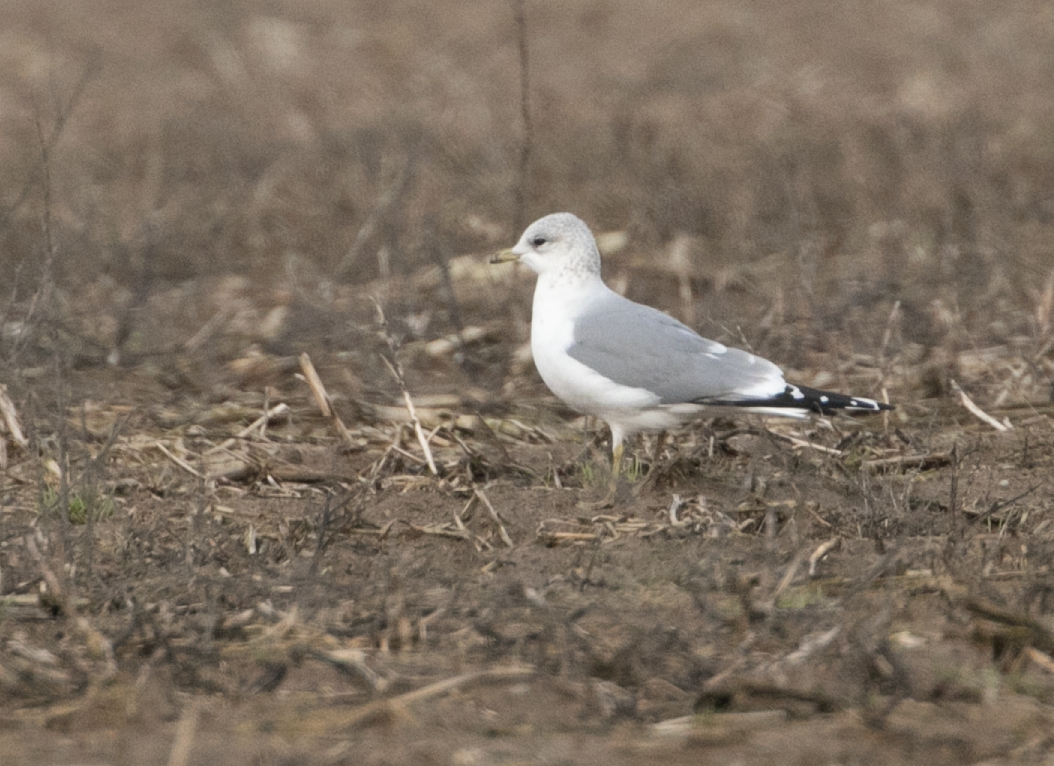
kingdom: Animalia
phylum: Chordata
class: Aves
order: Charadriiformes
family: Laridae
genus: Larus
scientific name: Larus canus
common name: Mew gull
